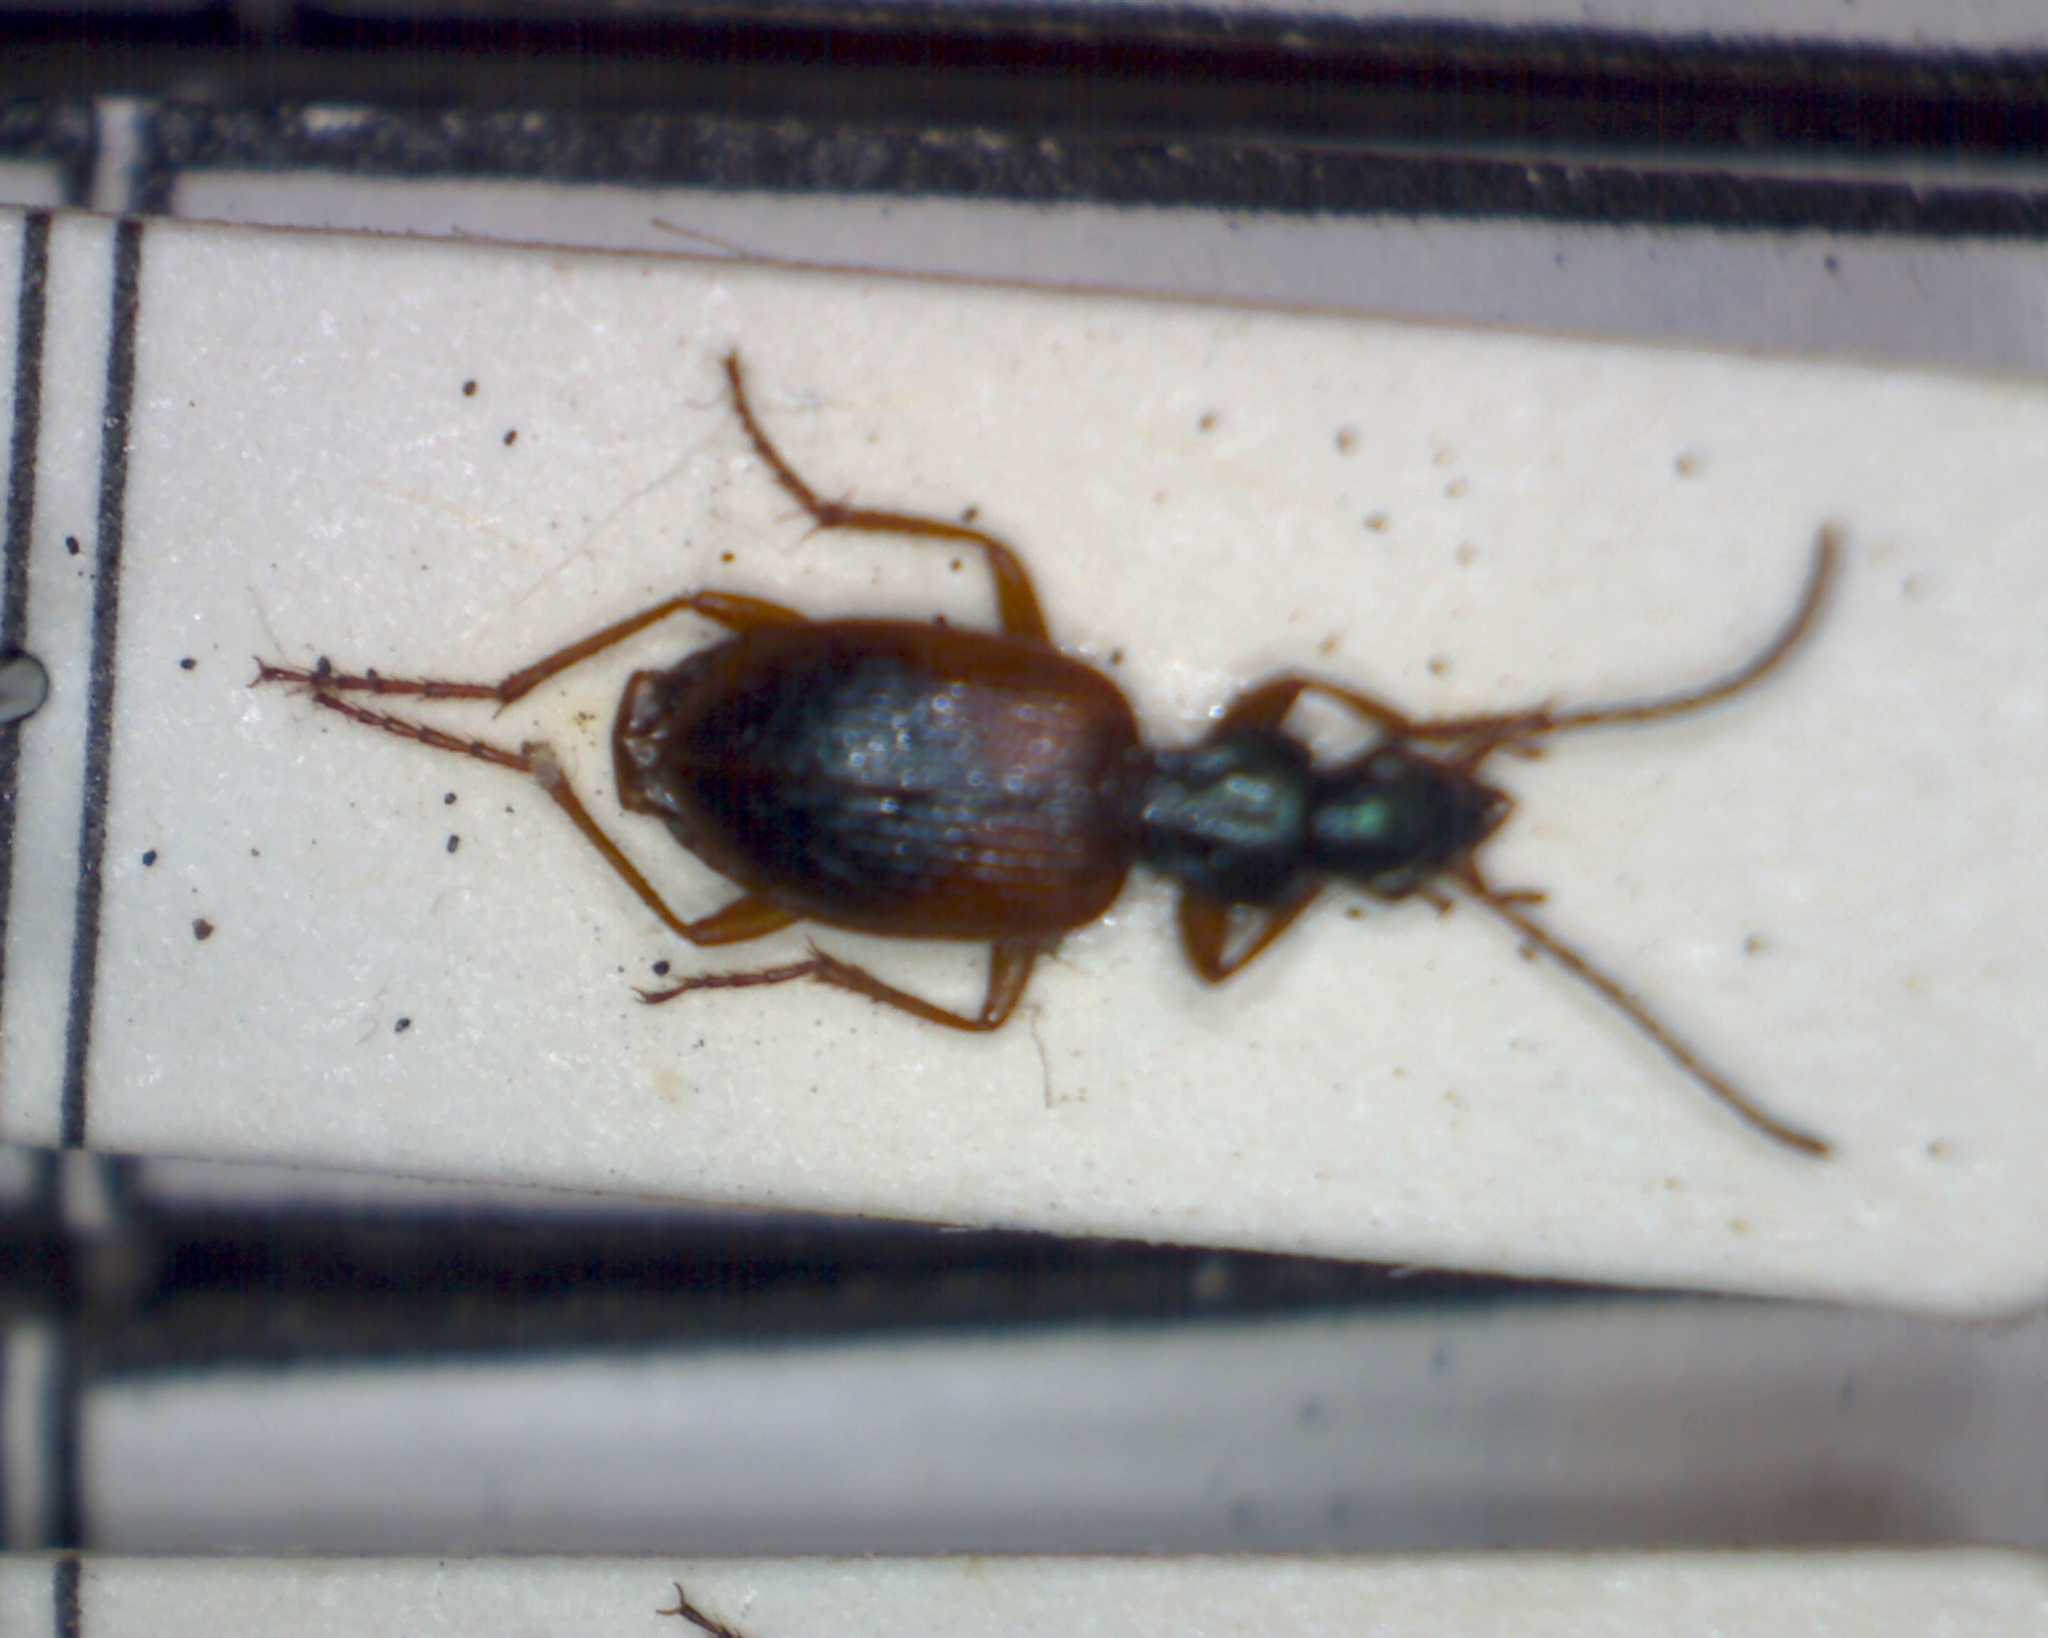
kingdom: Animalia
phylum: Arthropoda
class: Insecta
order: Coleoptera
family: Carabidae
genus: Anchomenus
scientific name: Anchomenus dorsalis
